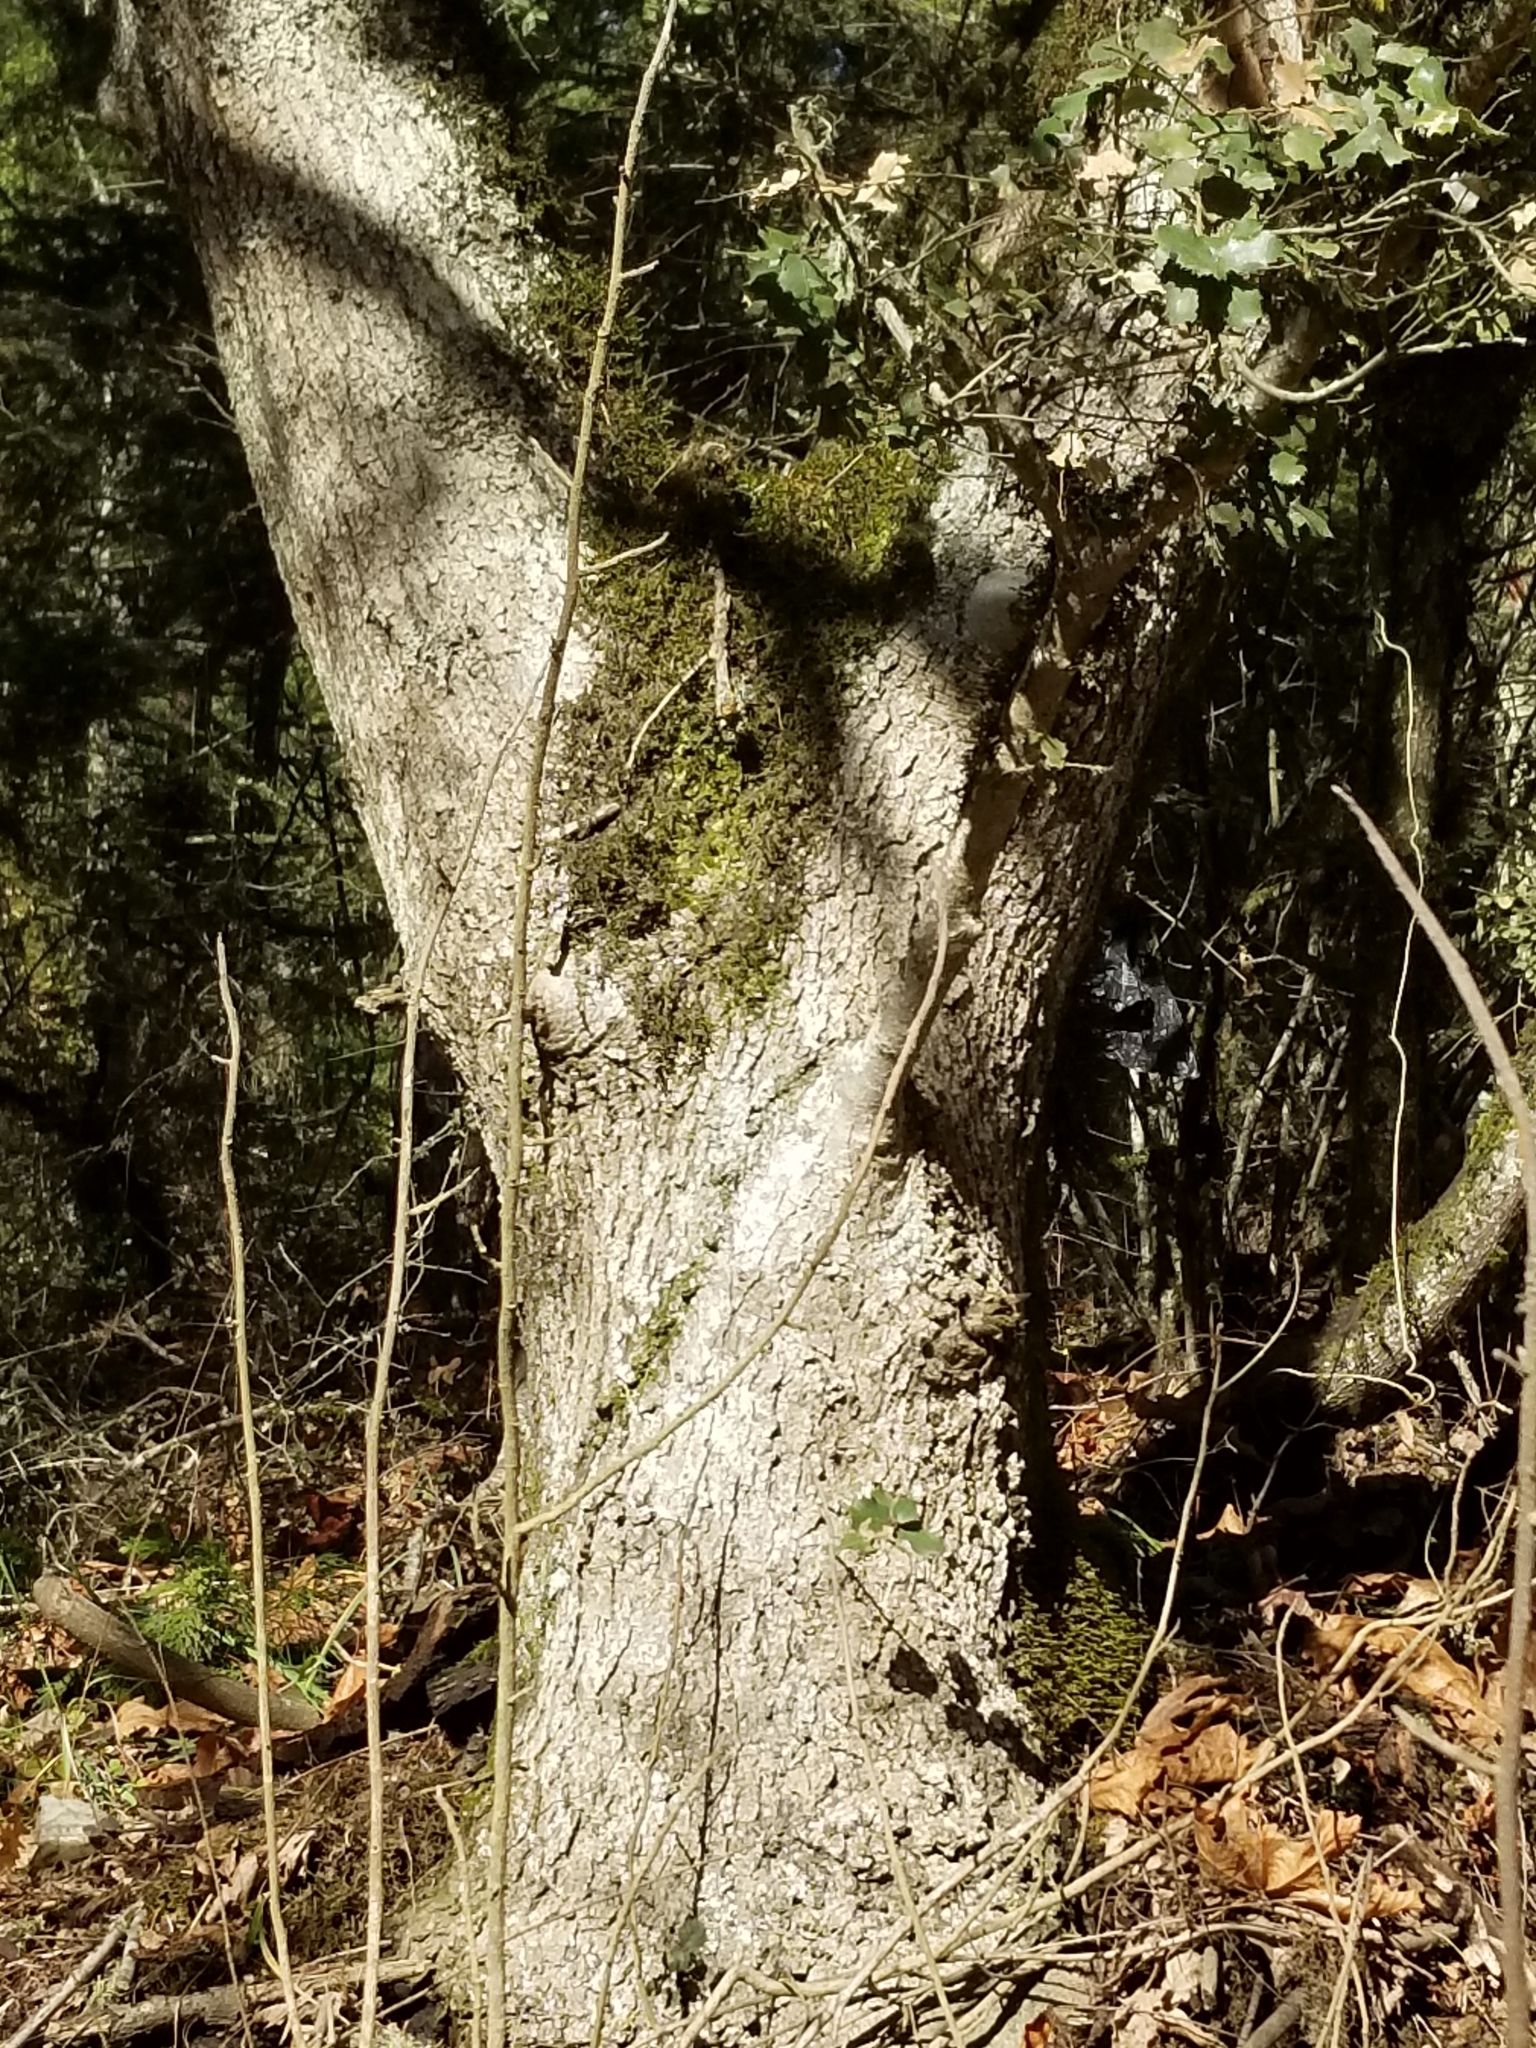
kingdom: Plantae
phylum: Tracheophyta
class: Magnoliopsida
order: Fagales
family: Fagaceae
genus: Quercus
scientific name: Quercus chrysolepis
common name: Canyon live oak
